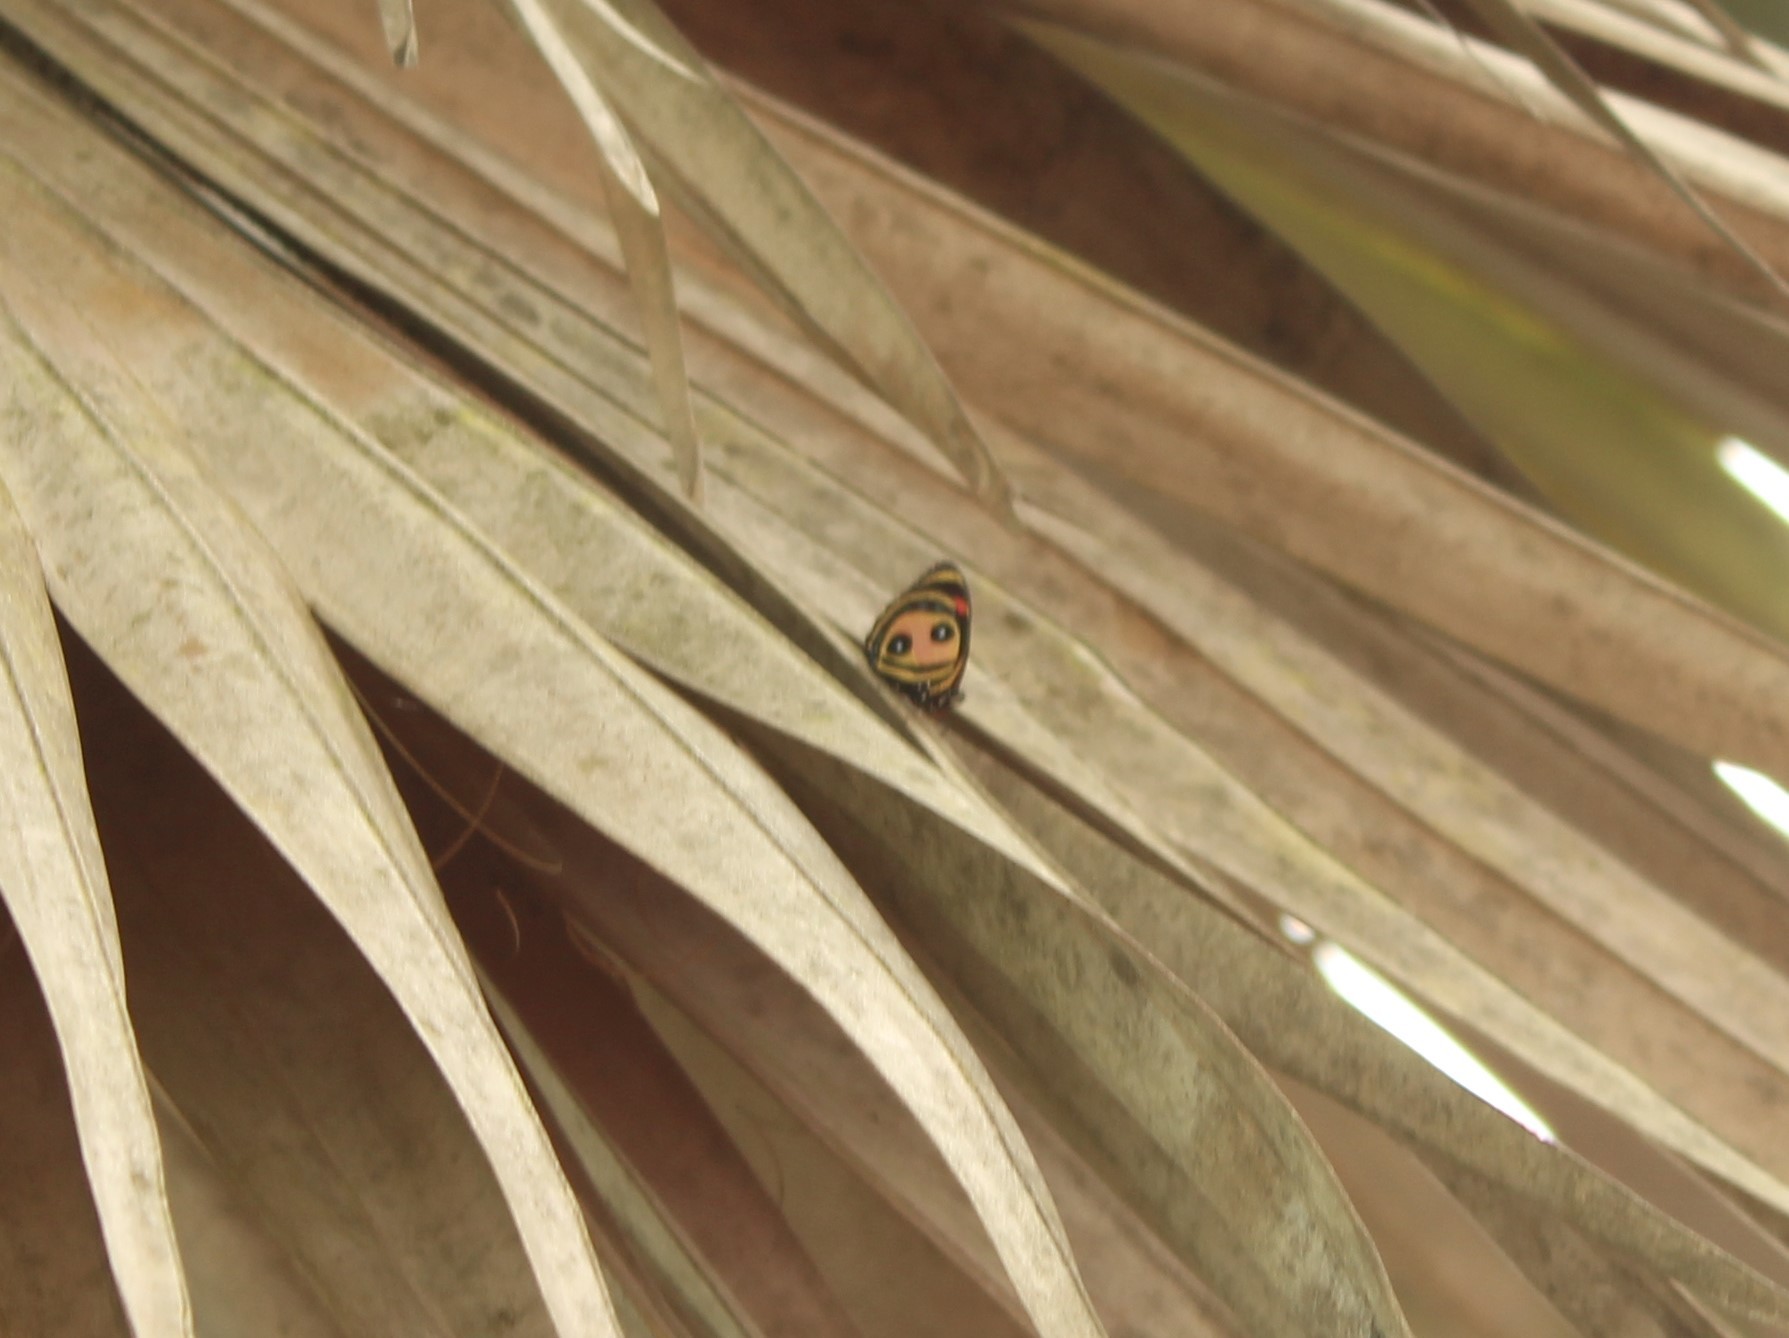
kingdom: Animalia
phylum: Arthropoda
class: Insecta
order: Lepidoptera
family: Nymphalidae
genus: Catagramma
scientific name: Catagramma Callicore pitheas
